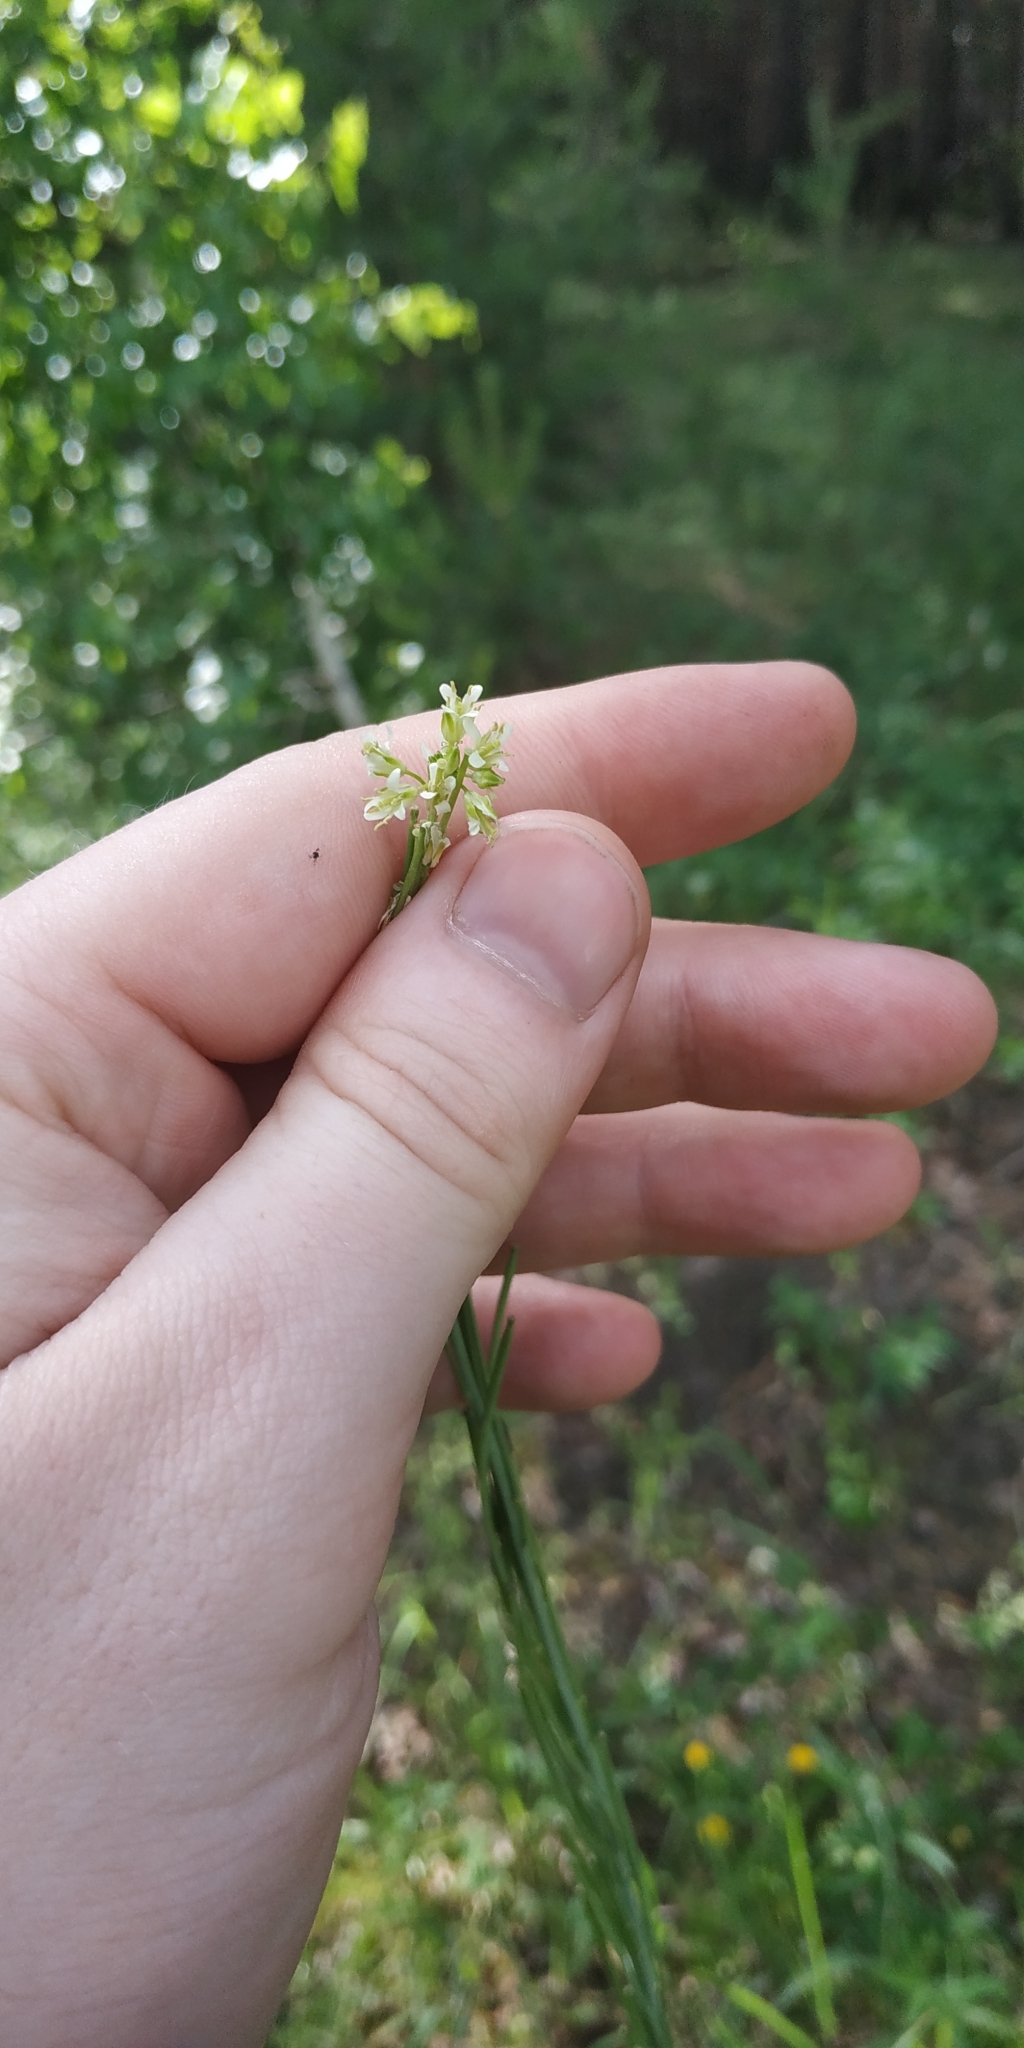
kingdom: Plantae
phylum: Tracheophyta
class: Magnoliopsida
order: Brassicales
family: Brassicaceae
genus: Turritis
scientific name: Turritis glabra
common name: Tower rockcress
